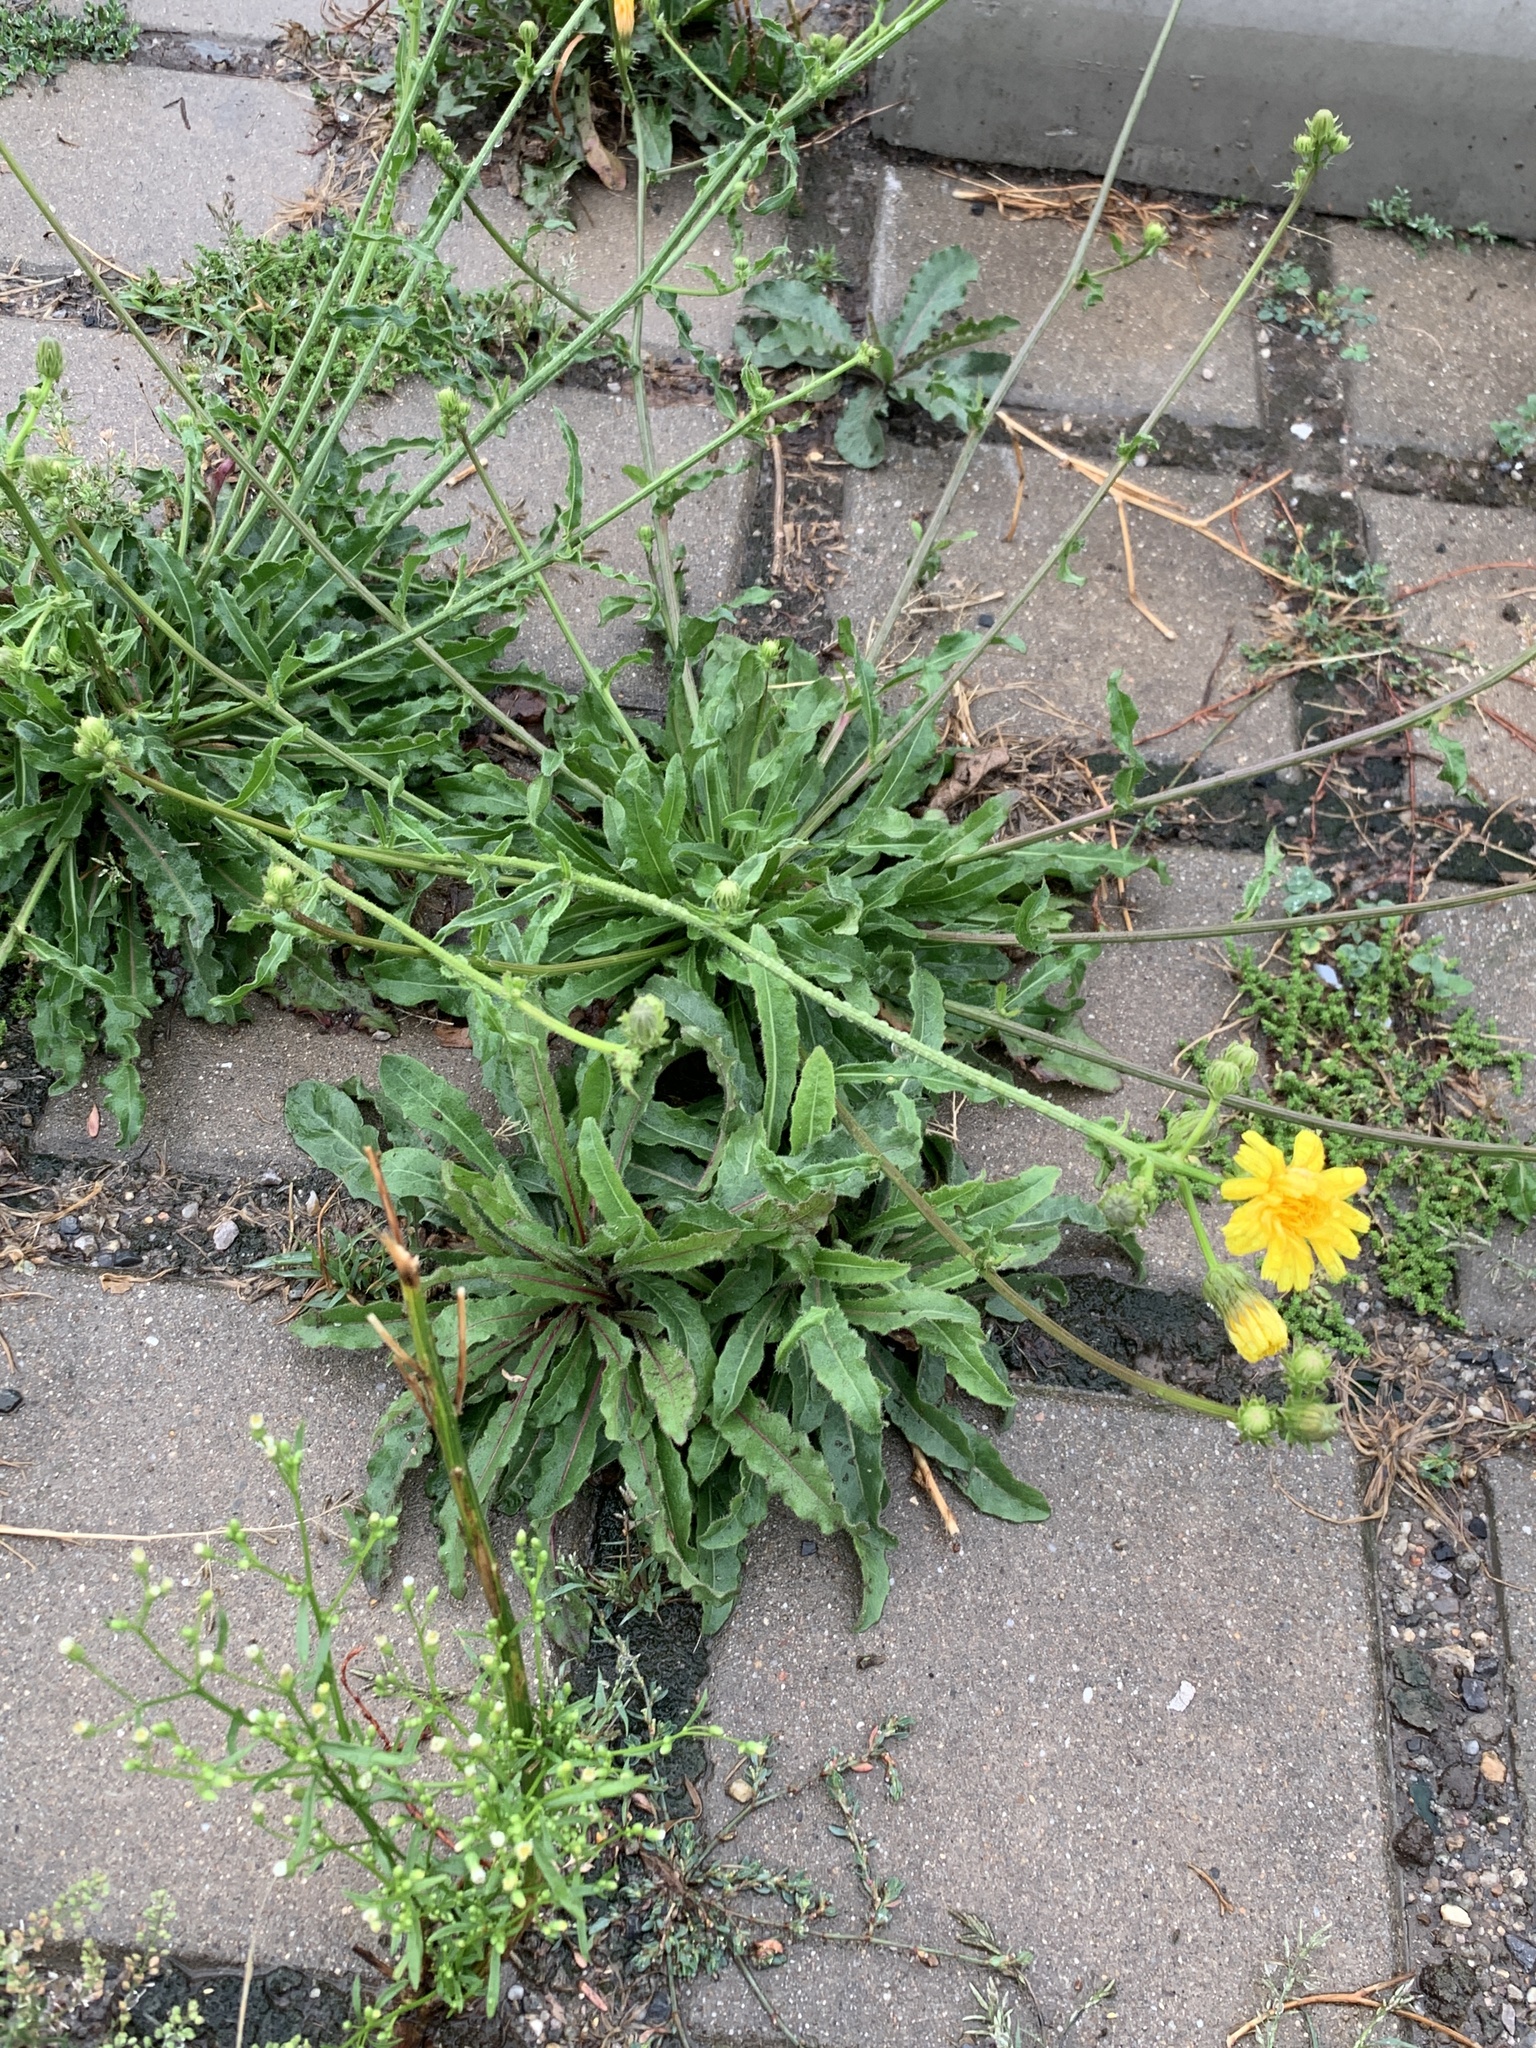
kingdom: Plantae
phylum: Tracheophyta
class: Magnoliopsida
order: Asterales
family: Asteraceae
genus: Picris
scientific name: Picris hieracioides
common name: Hawkweed oxtongue
